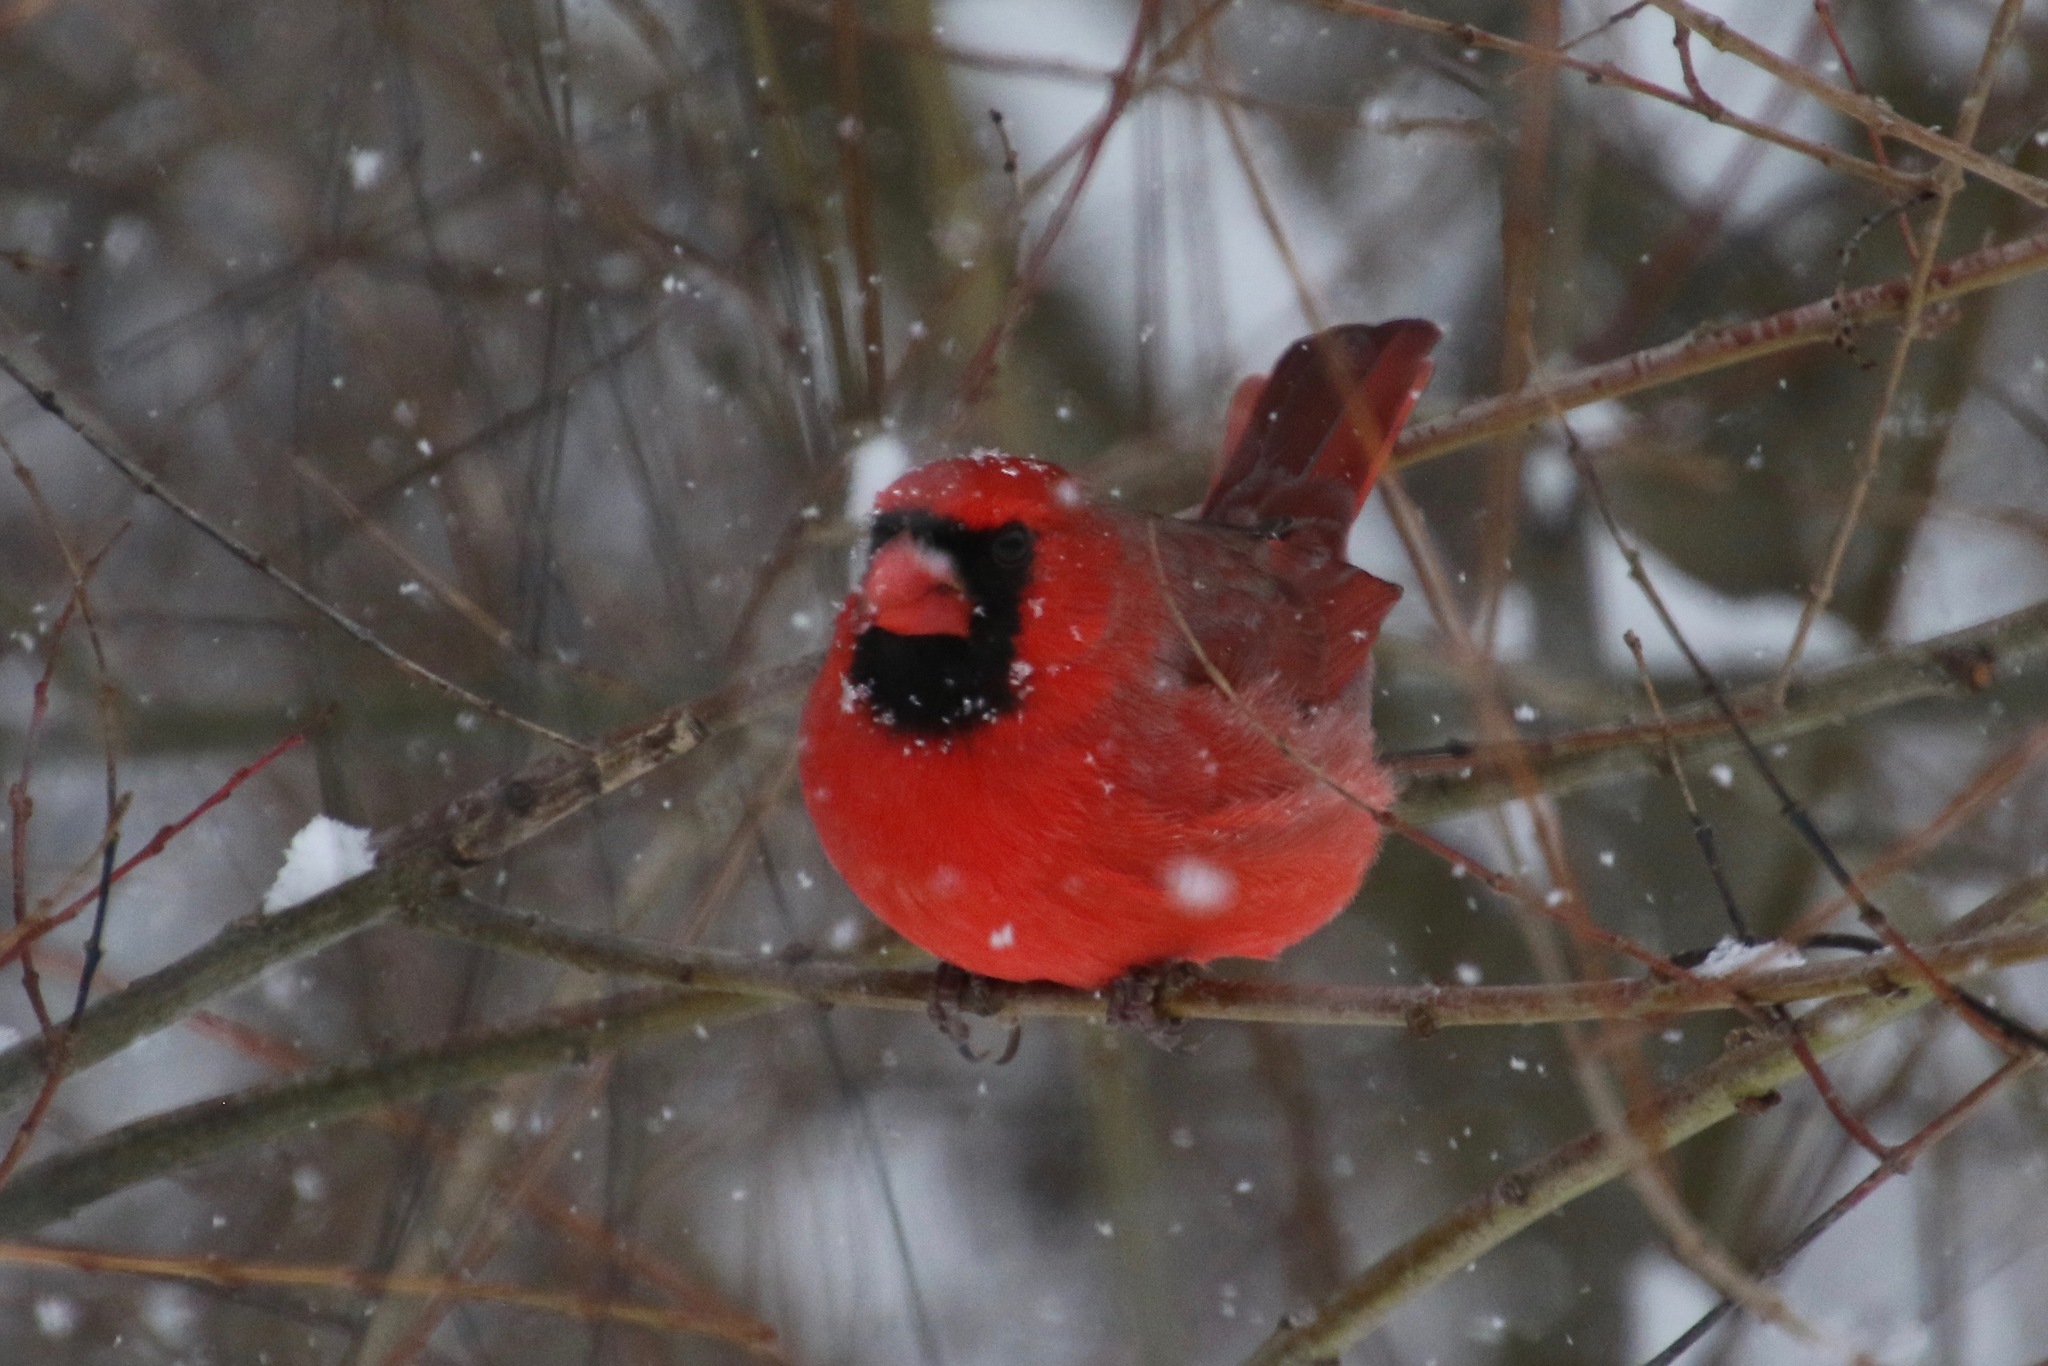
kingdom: Animalia
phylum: Chordata
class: Aves
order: Passeriformes
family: Cardinalidae
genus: Cardinalis
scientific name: Cardinalis cardinalis
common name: Northern cardinal
